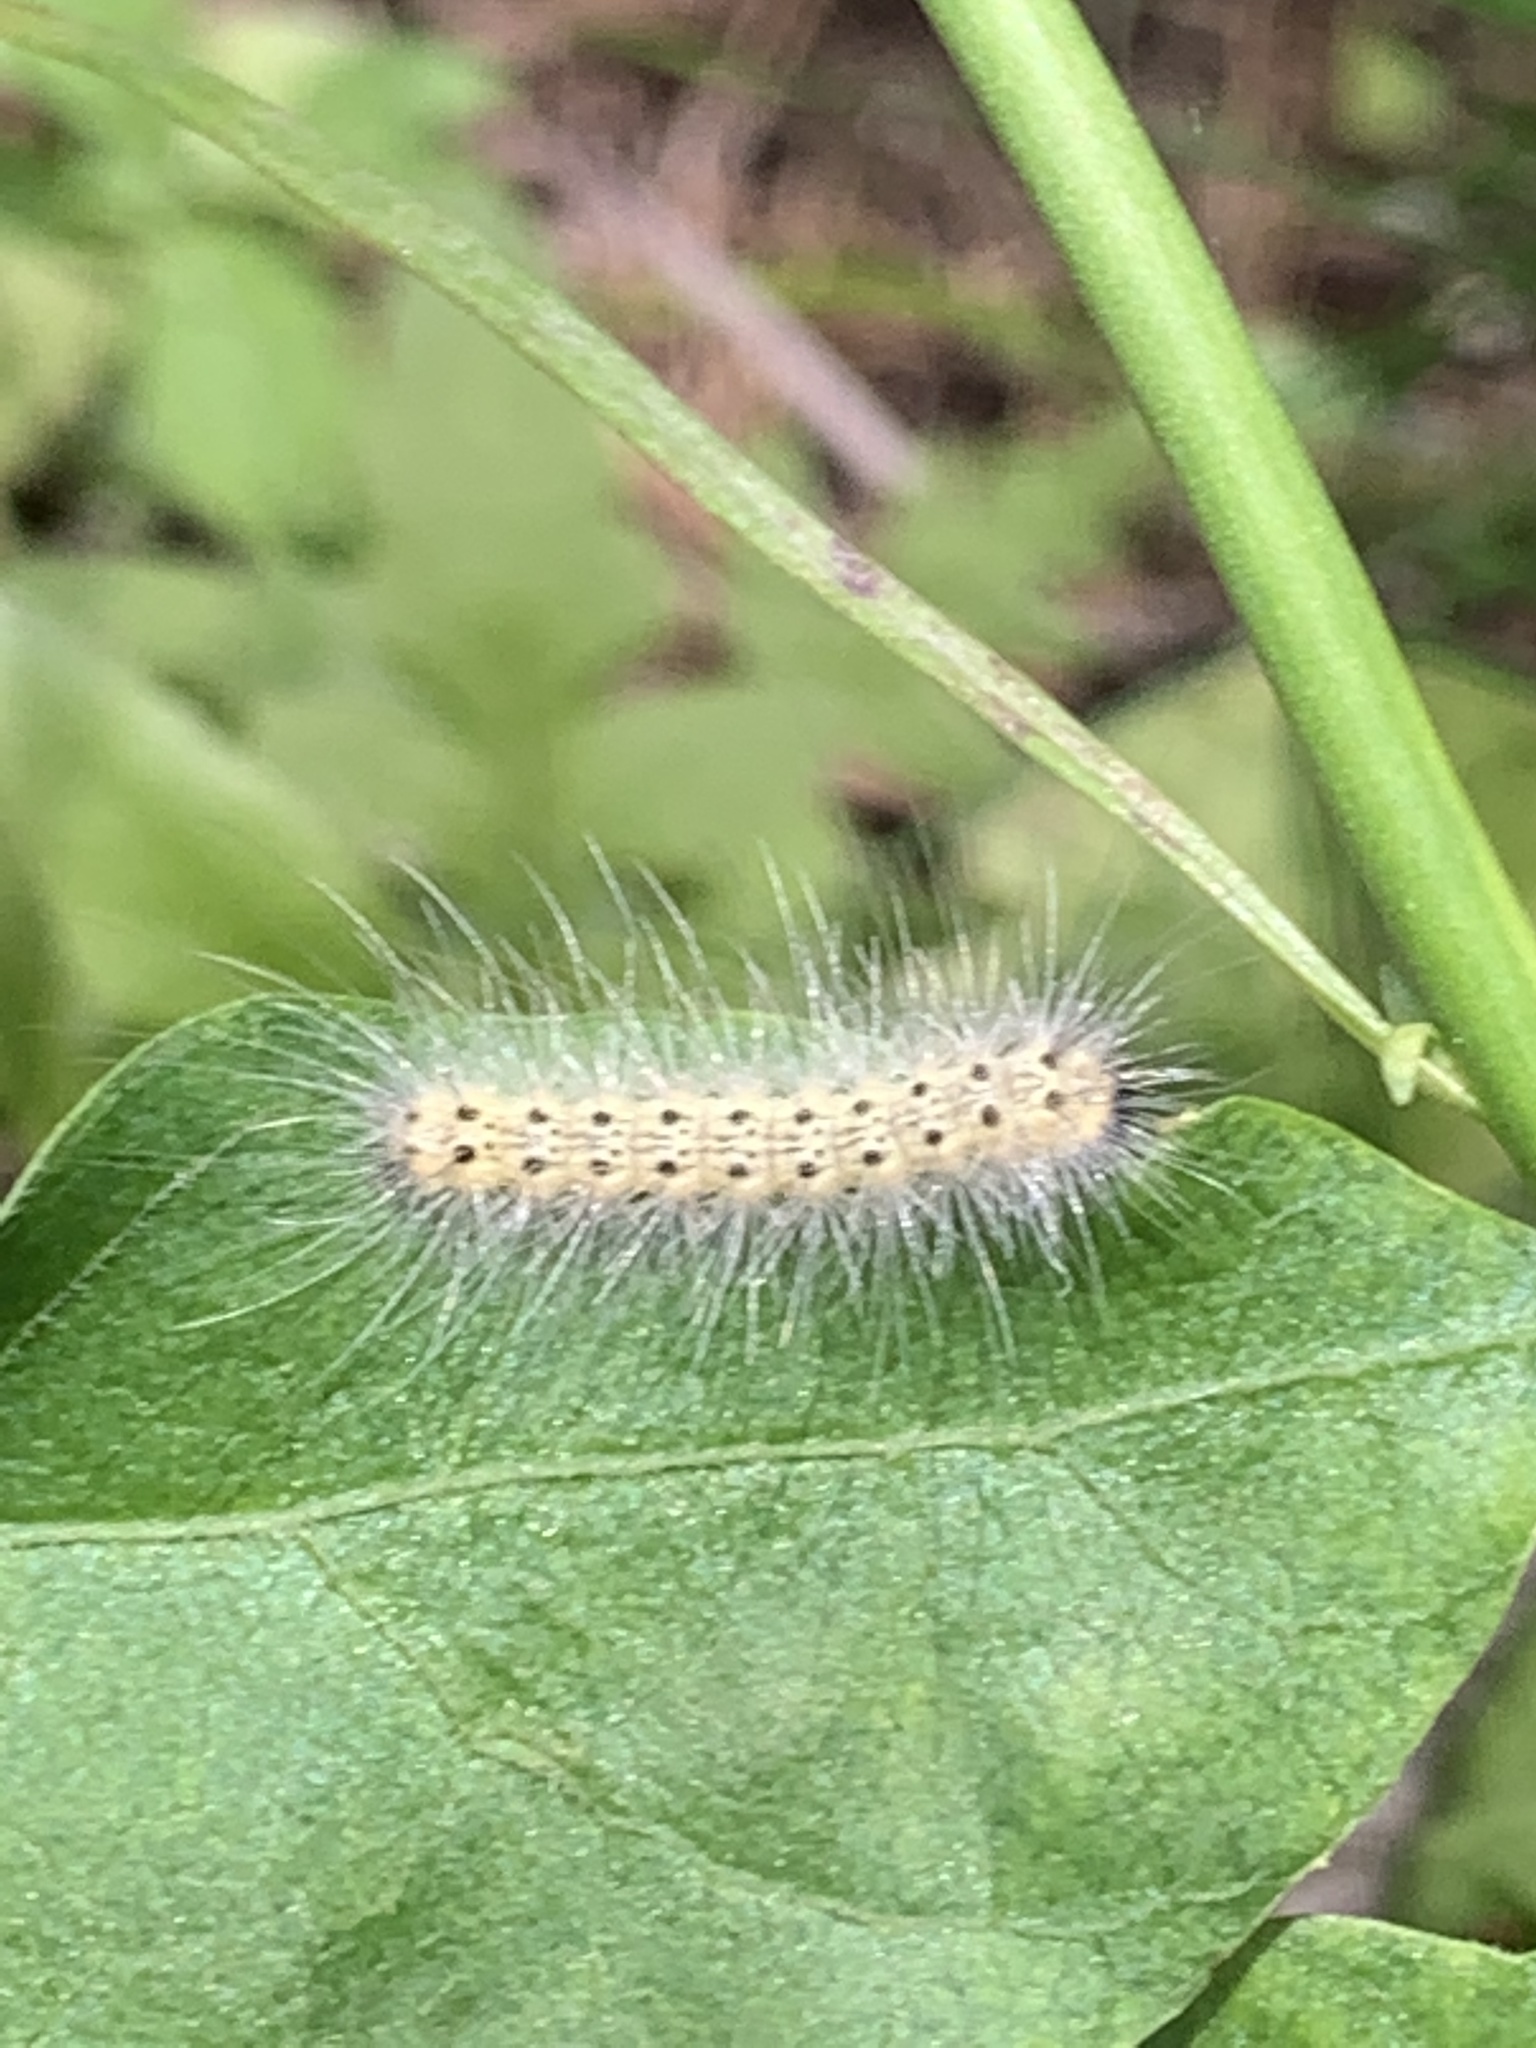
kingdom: Animalia
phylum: Arthropoda
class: Insecta
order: Lepidoptera
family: Erebidae
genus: Hyphantria
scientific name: Hyphantria cunea
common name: American white moth
